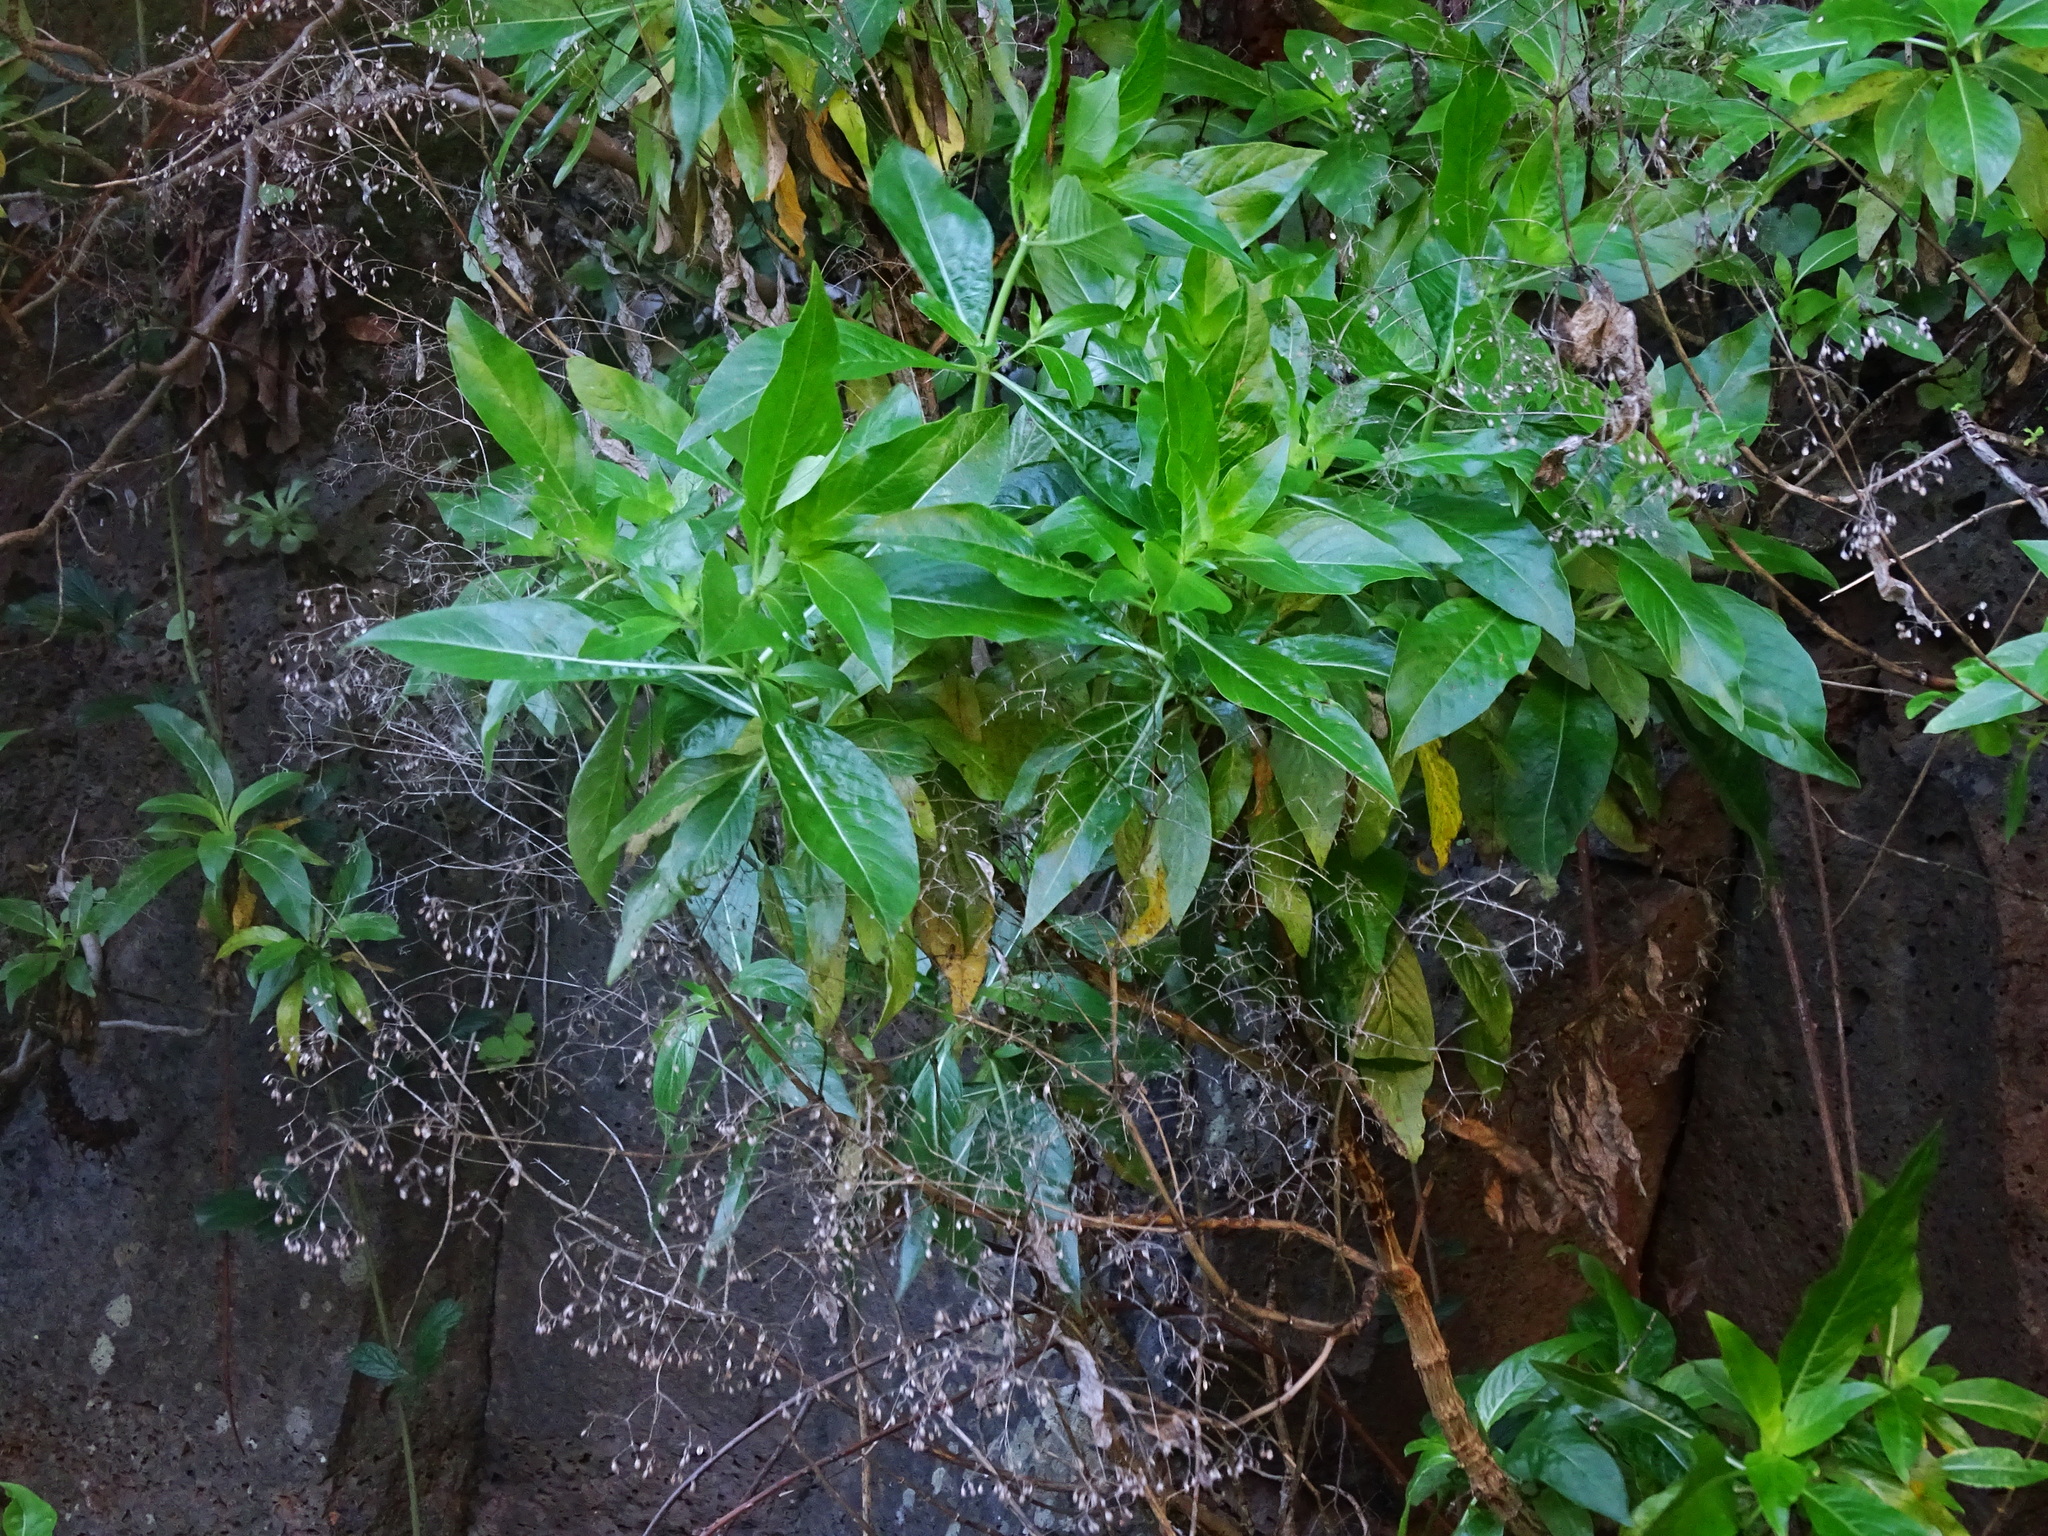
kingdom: Plantae
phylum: Tracheophyta
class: Magnoliopsida
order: Gentianales
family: Rubiaceae
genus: Phyllis
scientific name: Phyllis nobla
